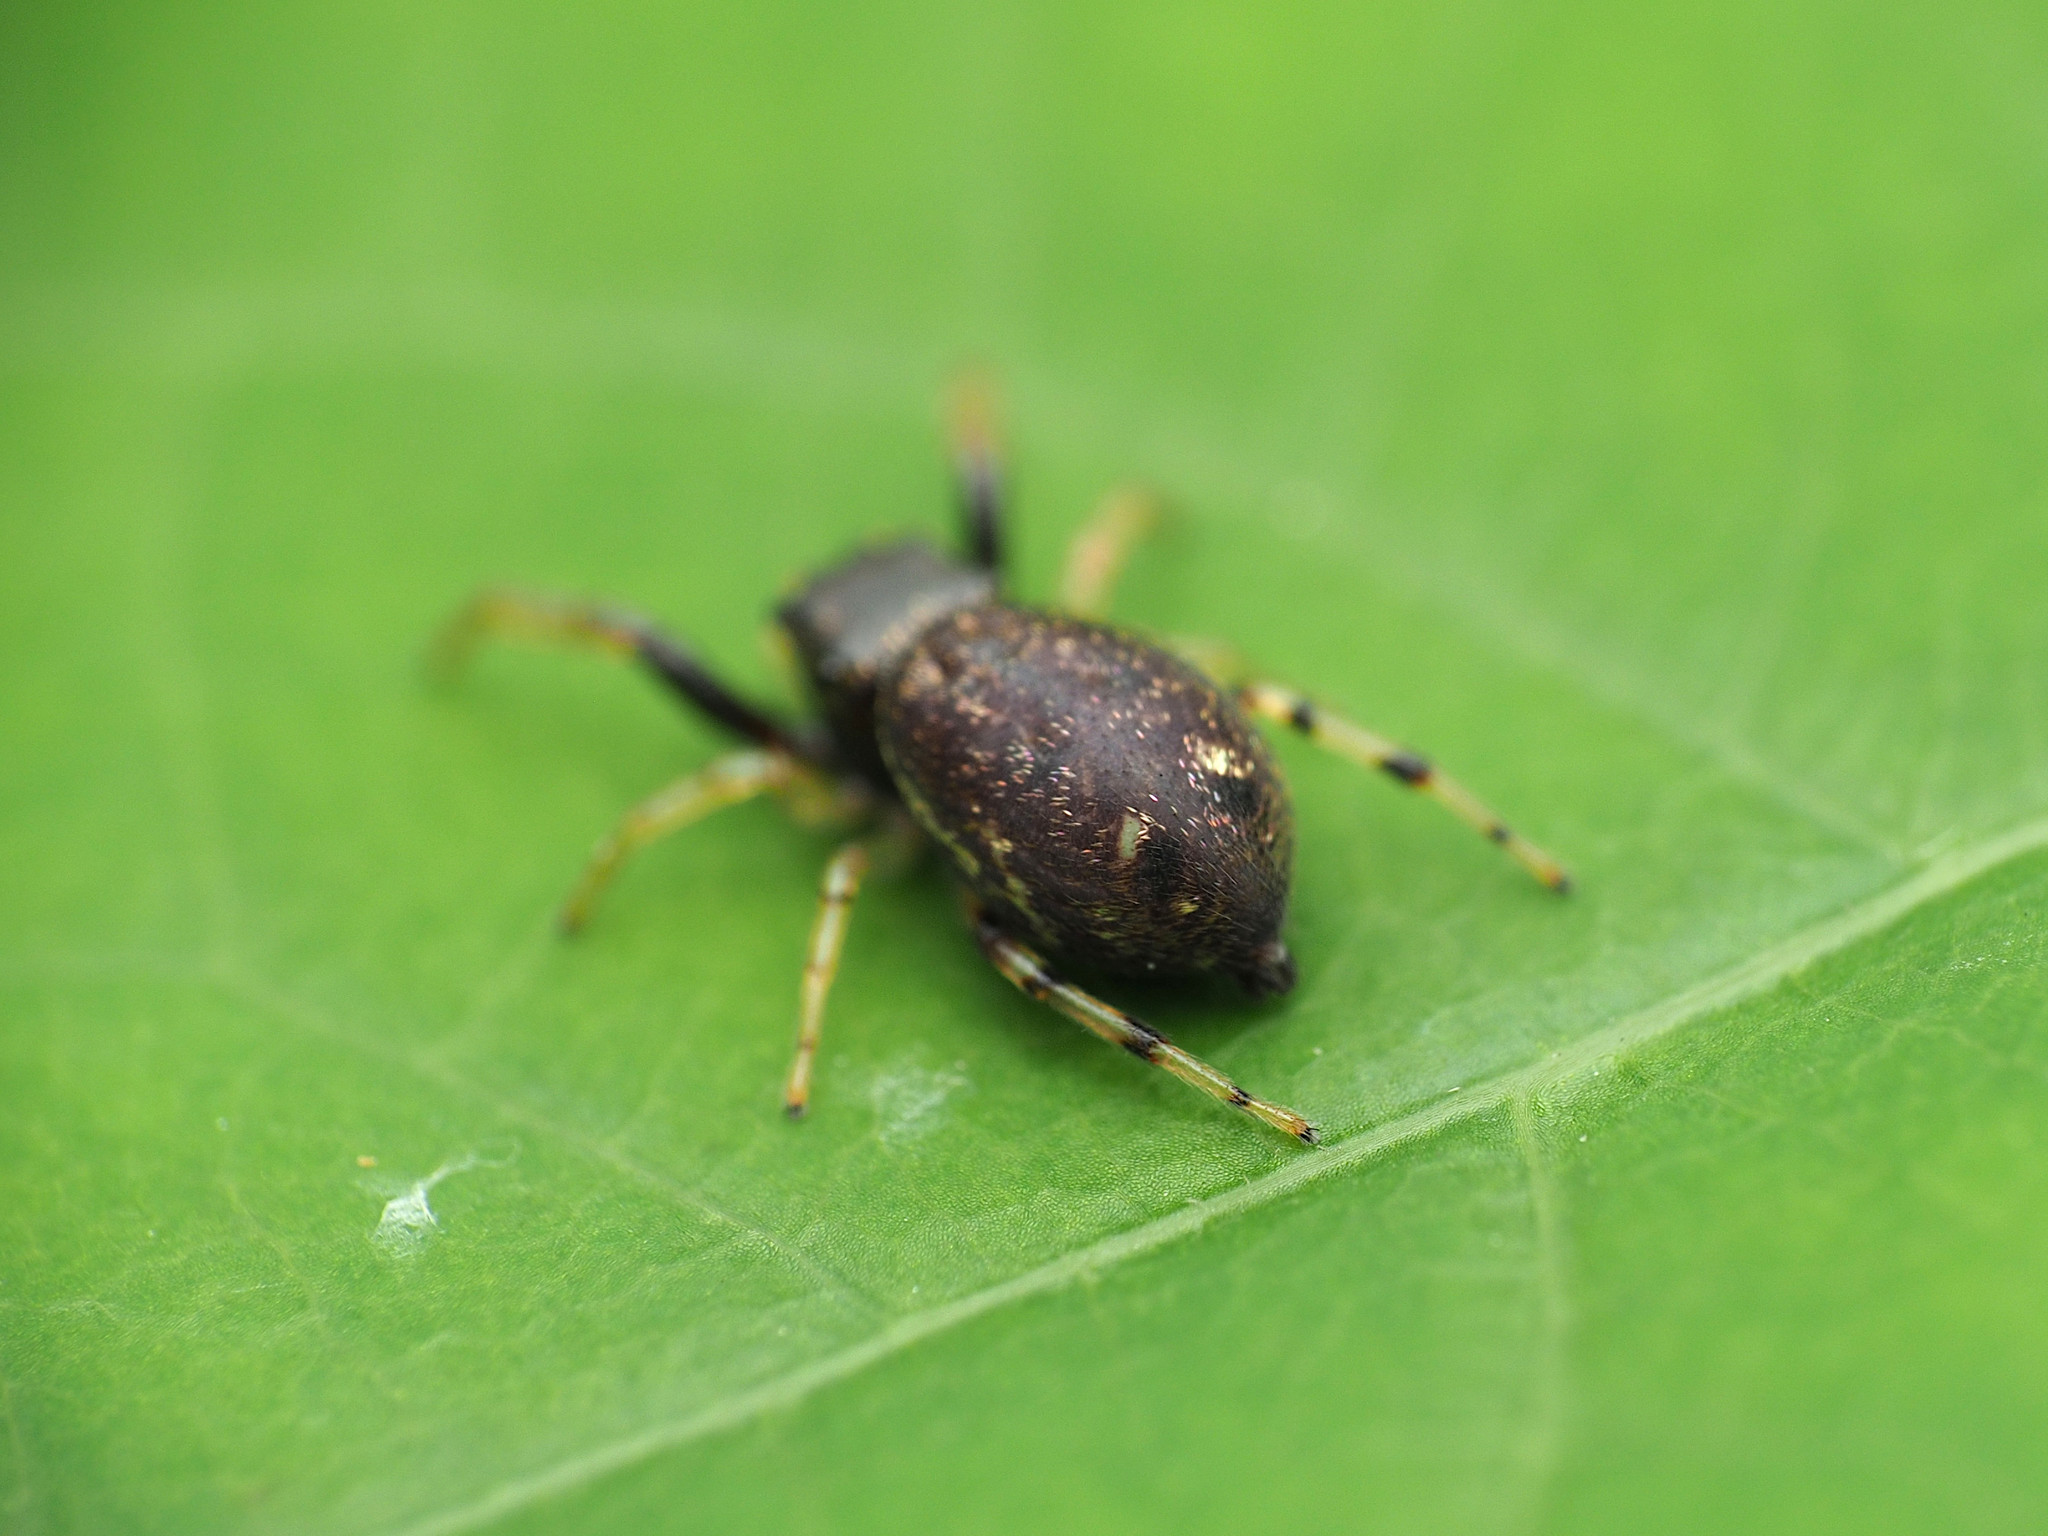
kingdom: Animalia
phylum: Arthropoda
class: Arachnida
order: Araneae
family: Salticidae
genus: Zygoballus
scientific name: Zygoballus rufipes
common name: Jumping spiders
